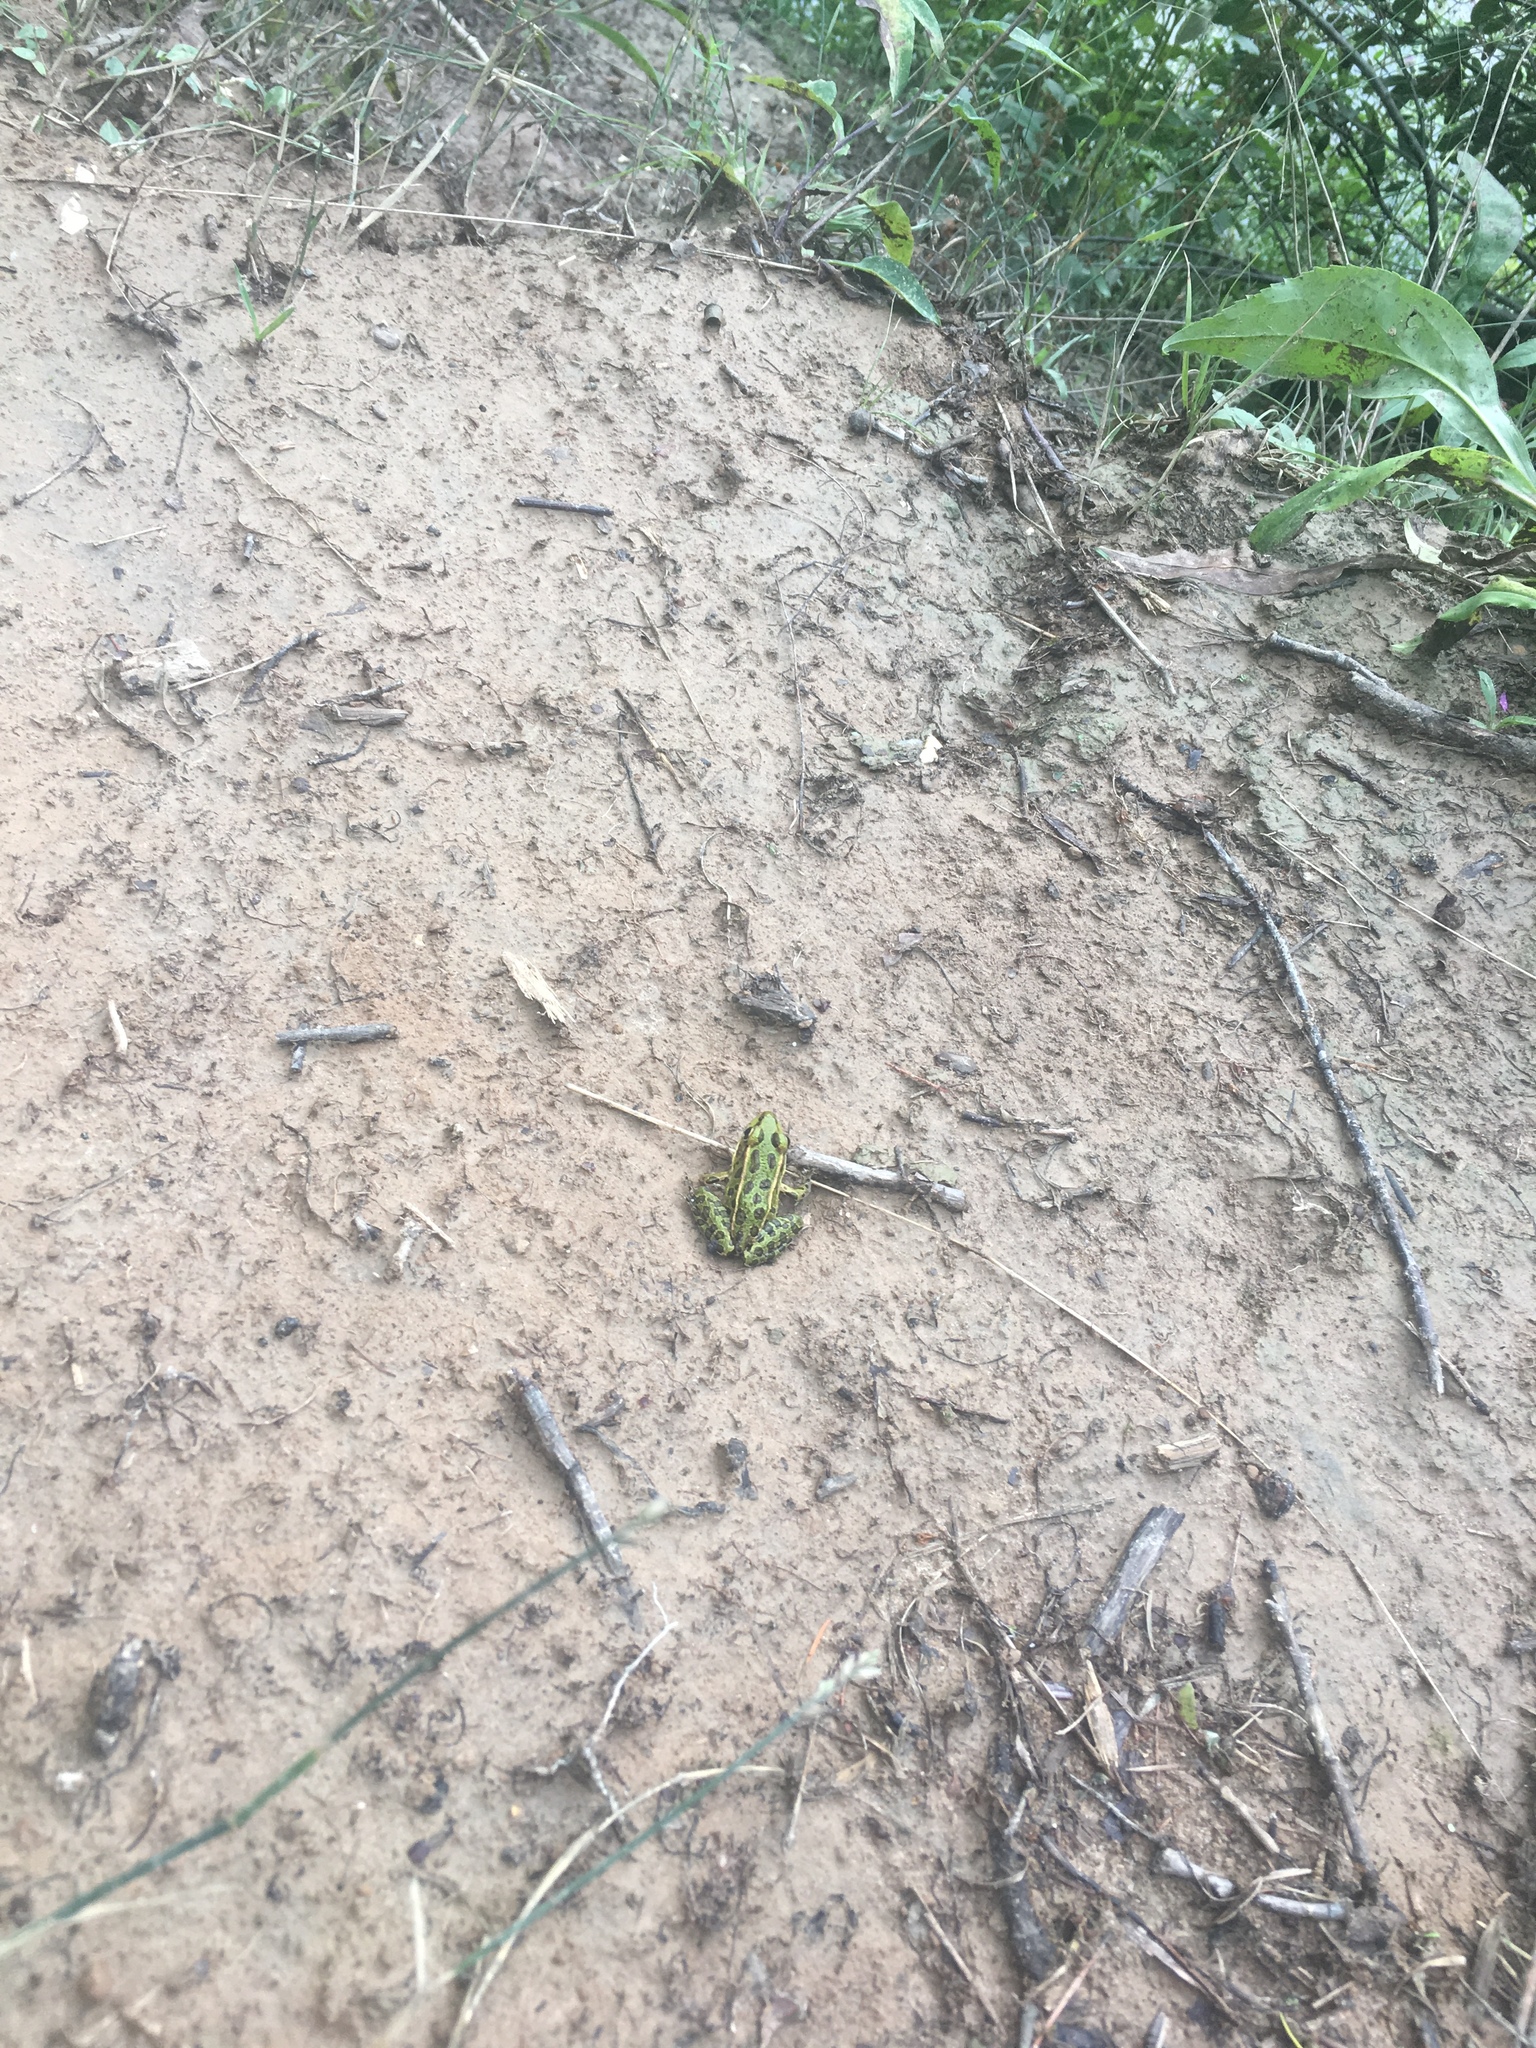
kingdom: Animalia
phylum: Chordata
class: Amphibia
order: Anura
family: Ranidae
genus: Lithobates
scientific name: Lithobates pipiens
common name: Northern leopard frog
